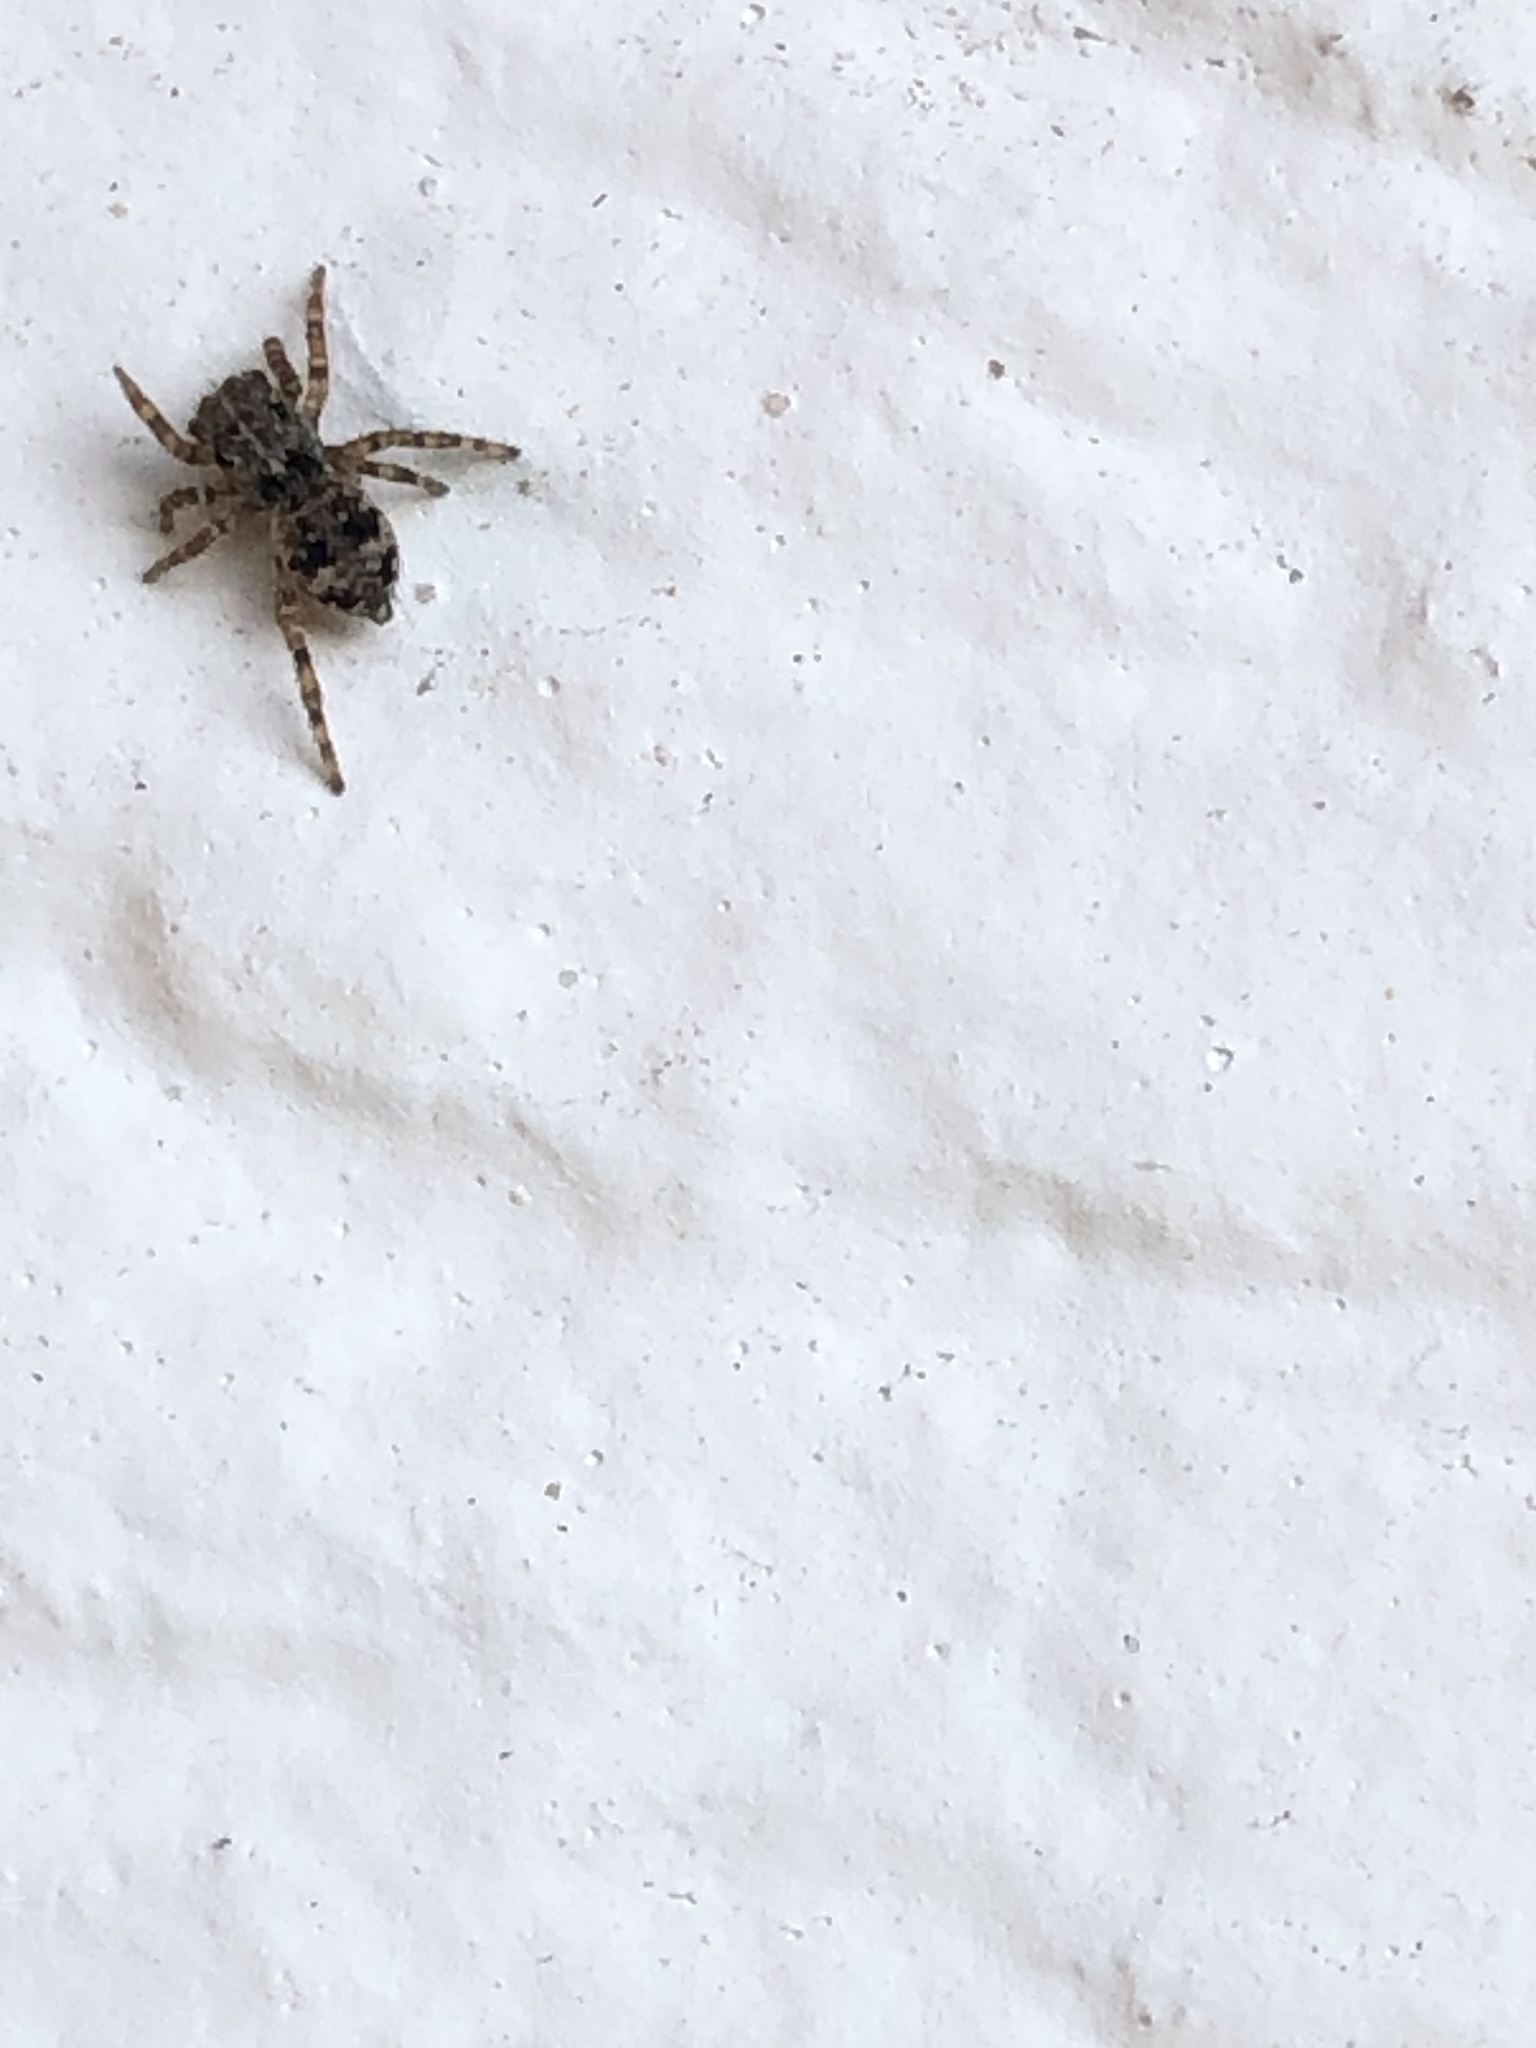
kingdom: Animalia
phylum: Arthropoda
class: Arachnida
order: Araneae
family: Salticidae
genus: Attulus
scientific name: Attulus fasciger
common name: Asiatic wall jumping spider
